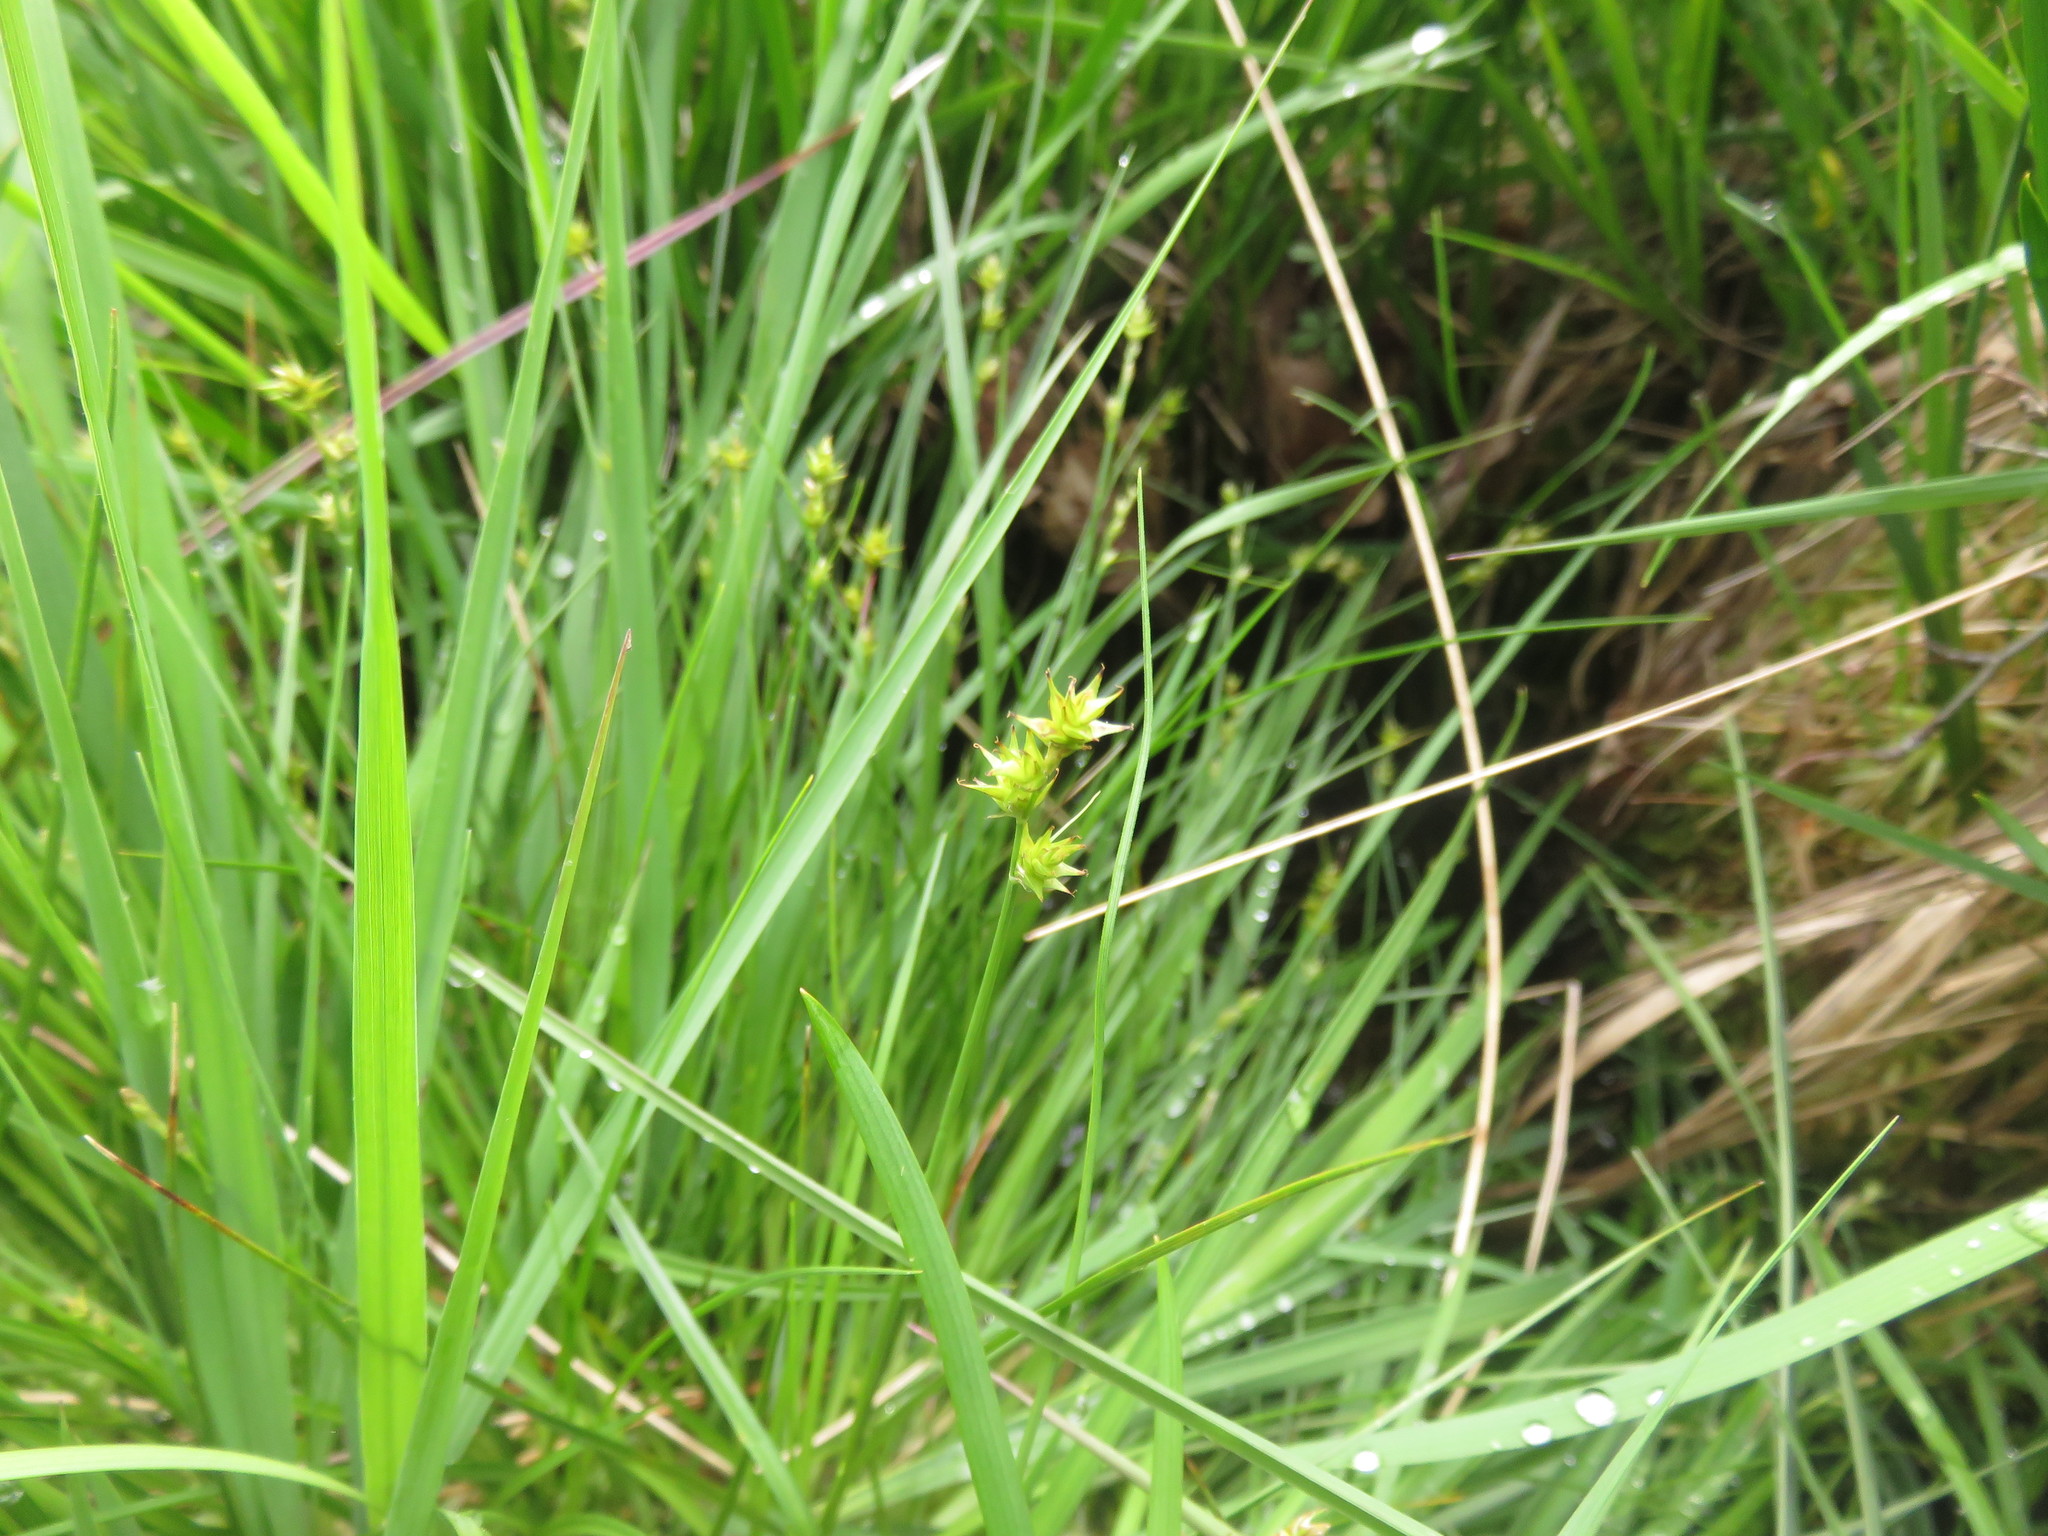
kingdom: Plantae
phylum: Tracheophyta
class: Liliopsida
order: Poales
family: Cyperaceae
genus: Carex
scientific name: Carex echinata
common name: Star sedge
